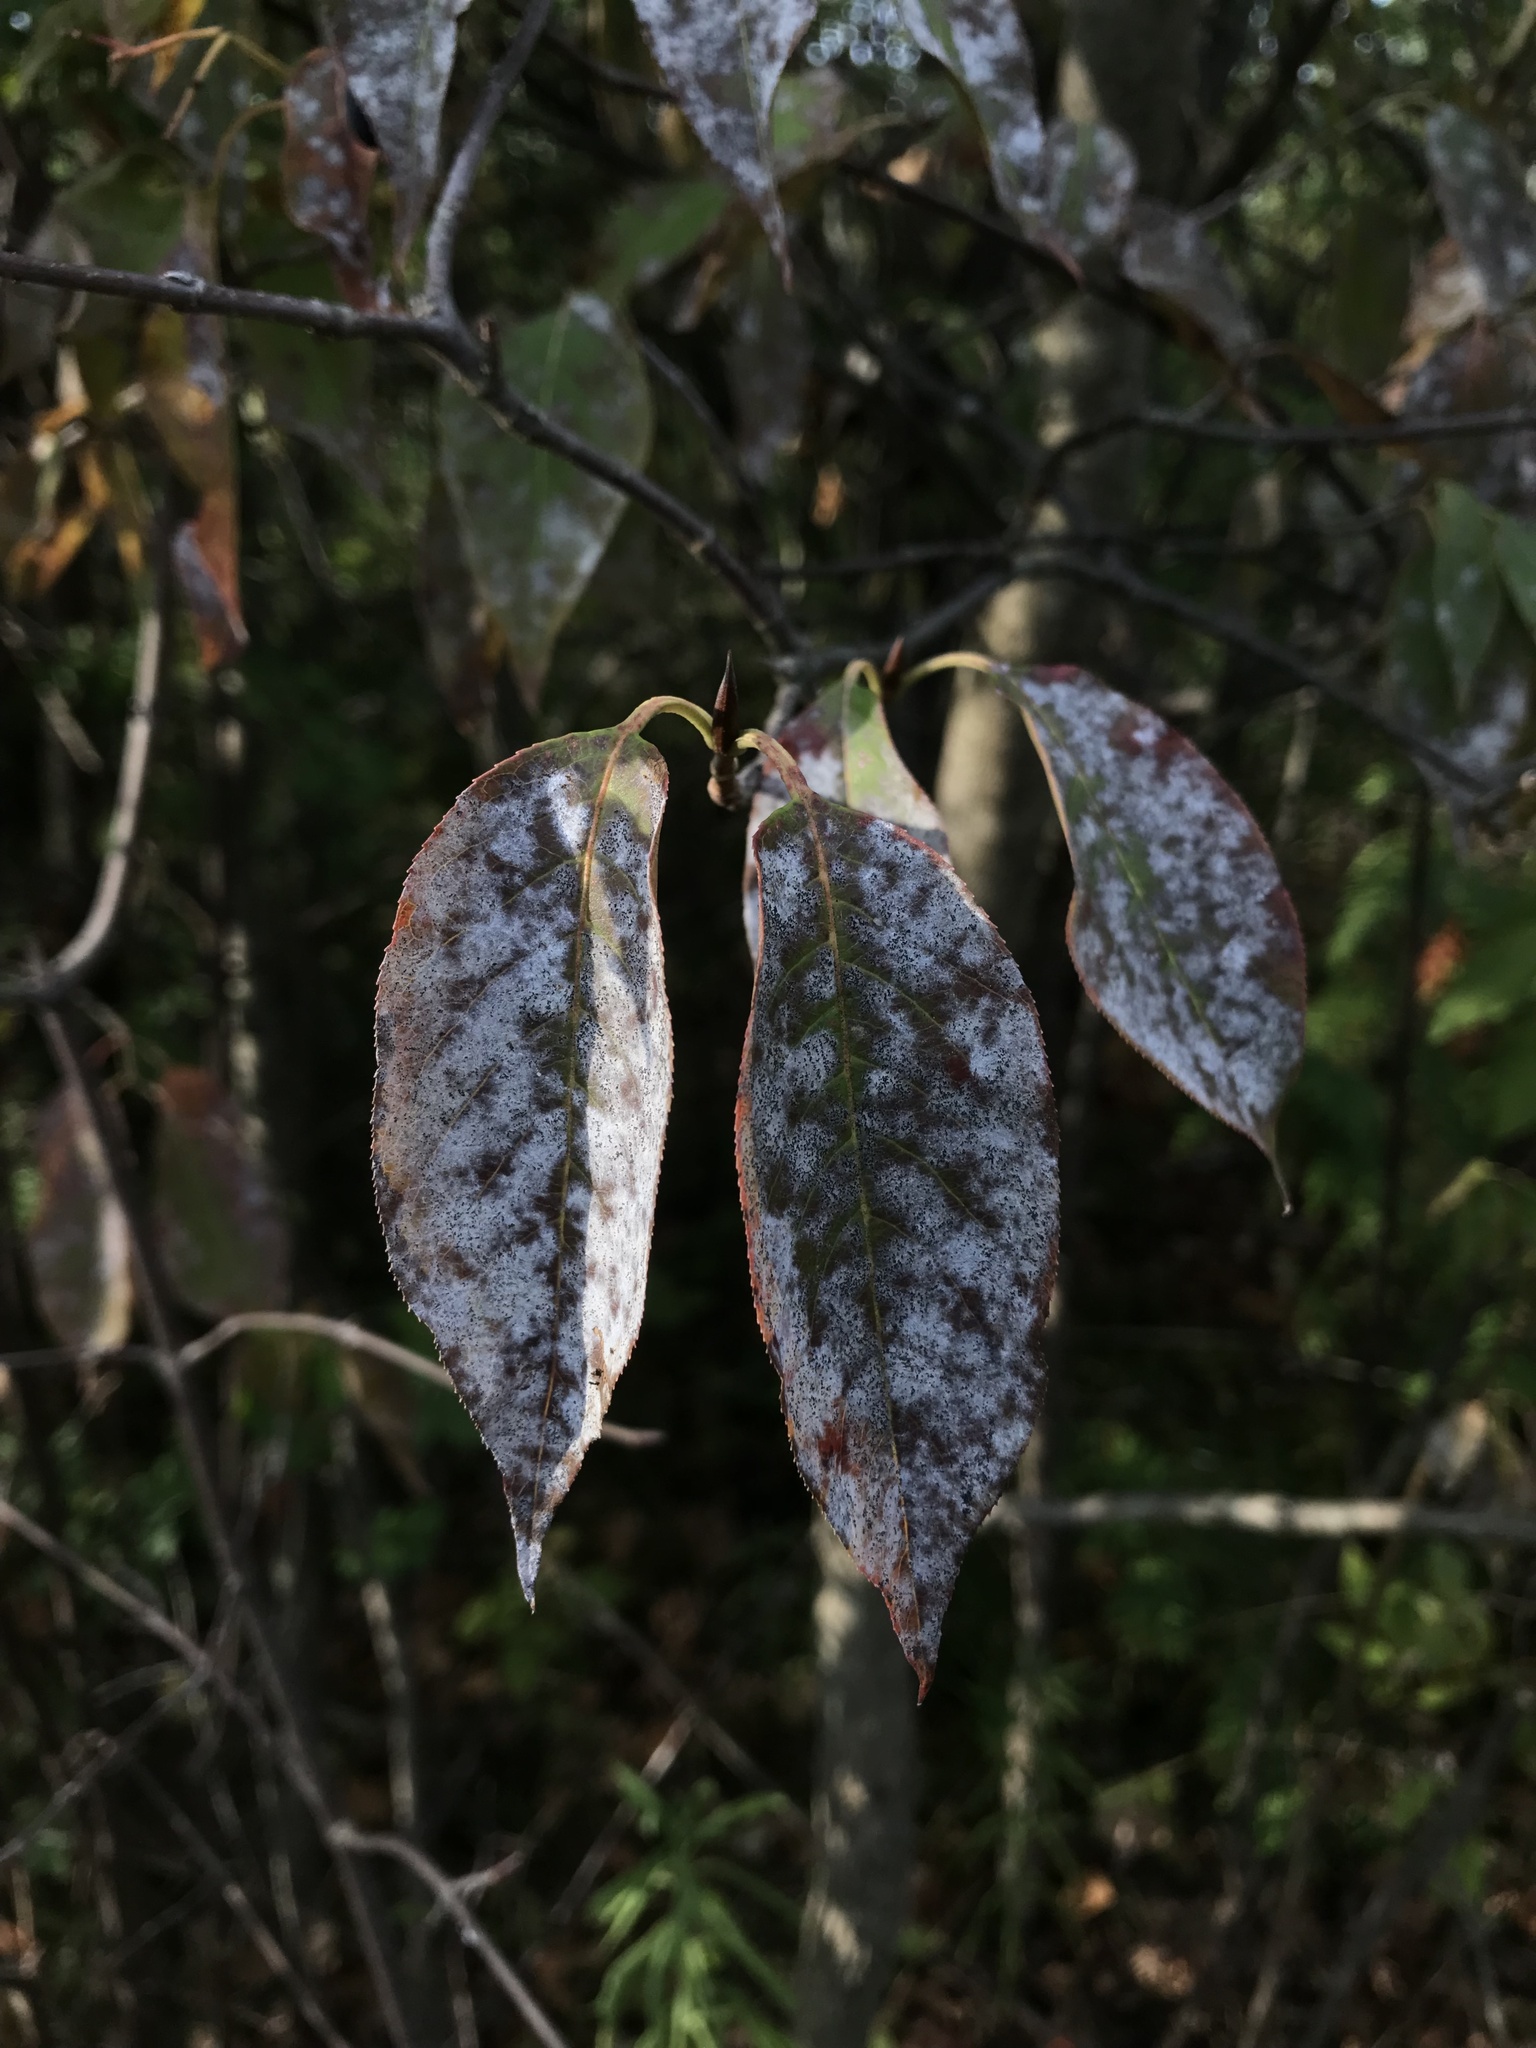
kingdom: Plantae
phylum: Tracheophyta
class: Magnoliopsida
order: Dipsacales
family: Viburnaceae
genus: Viburnum
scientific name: Viburnum lentago
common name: Black haw
